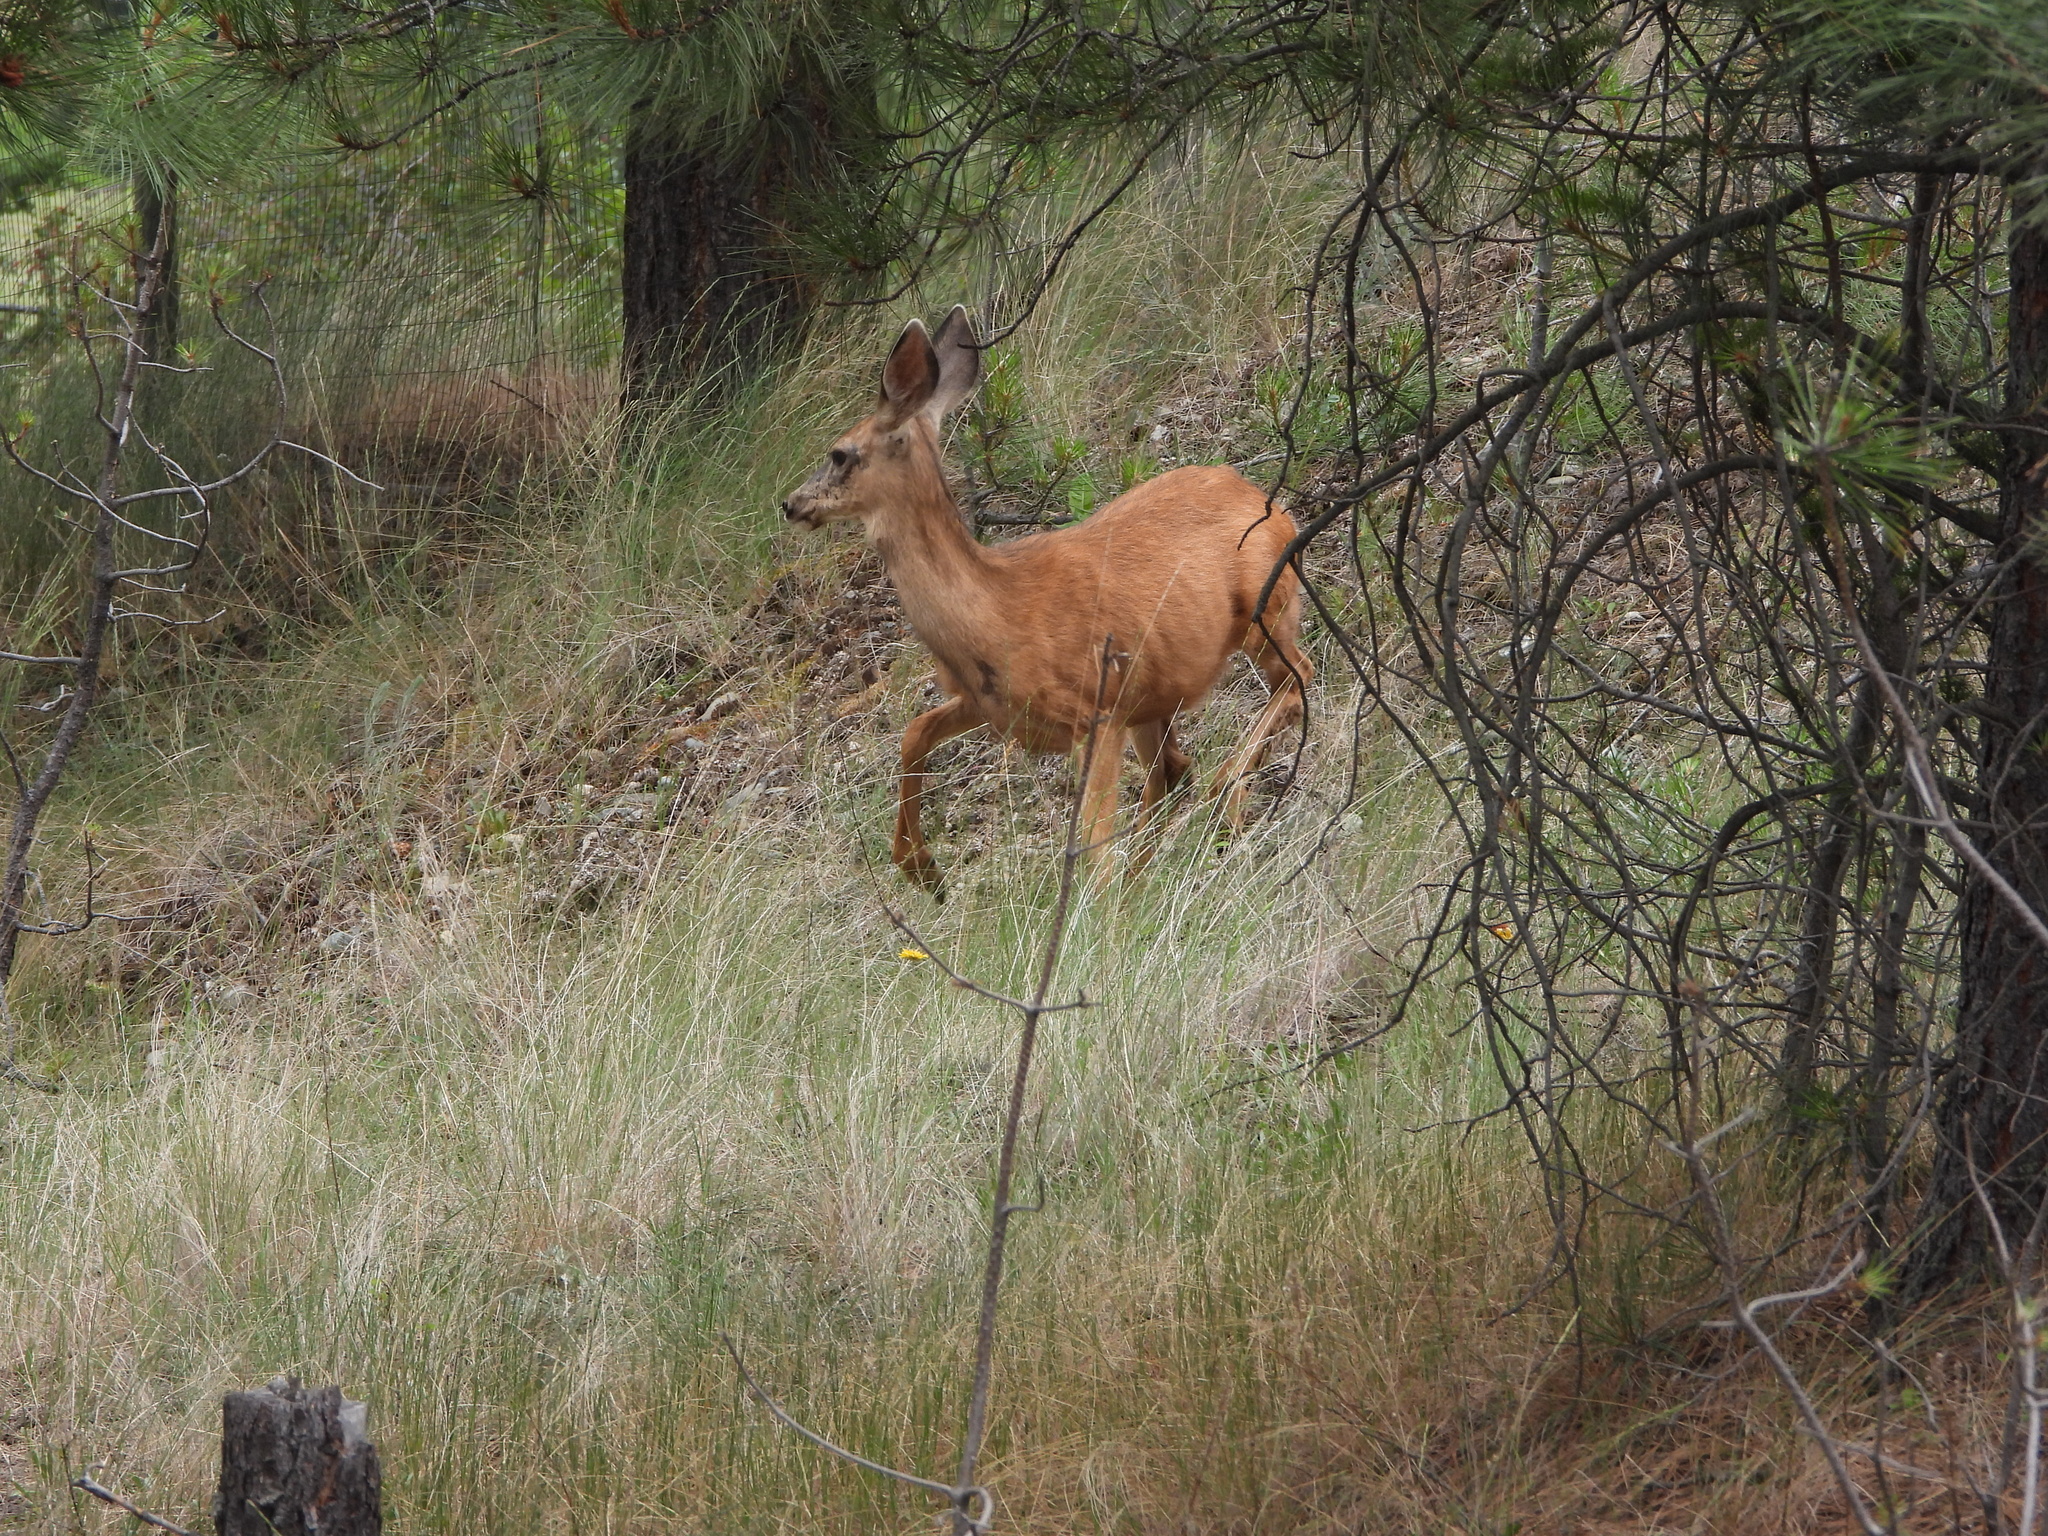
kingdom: Animalia
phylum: Chordata
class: Mammalia
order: Artiodactyla
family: Cervidae
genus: Odocoileus
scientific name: Odocoileus hemionus
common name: Mule deer
